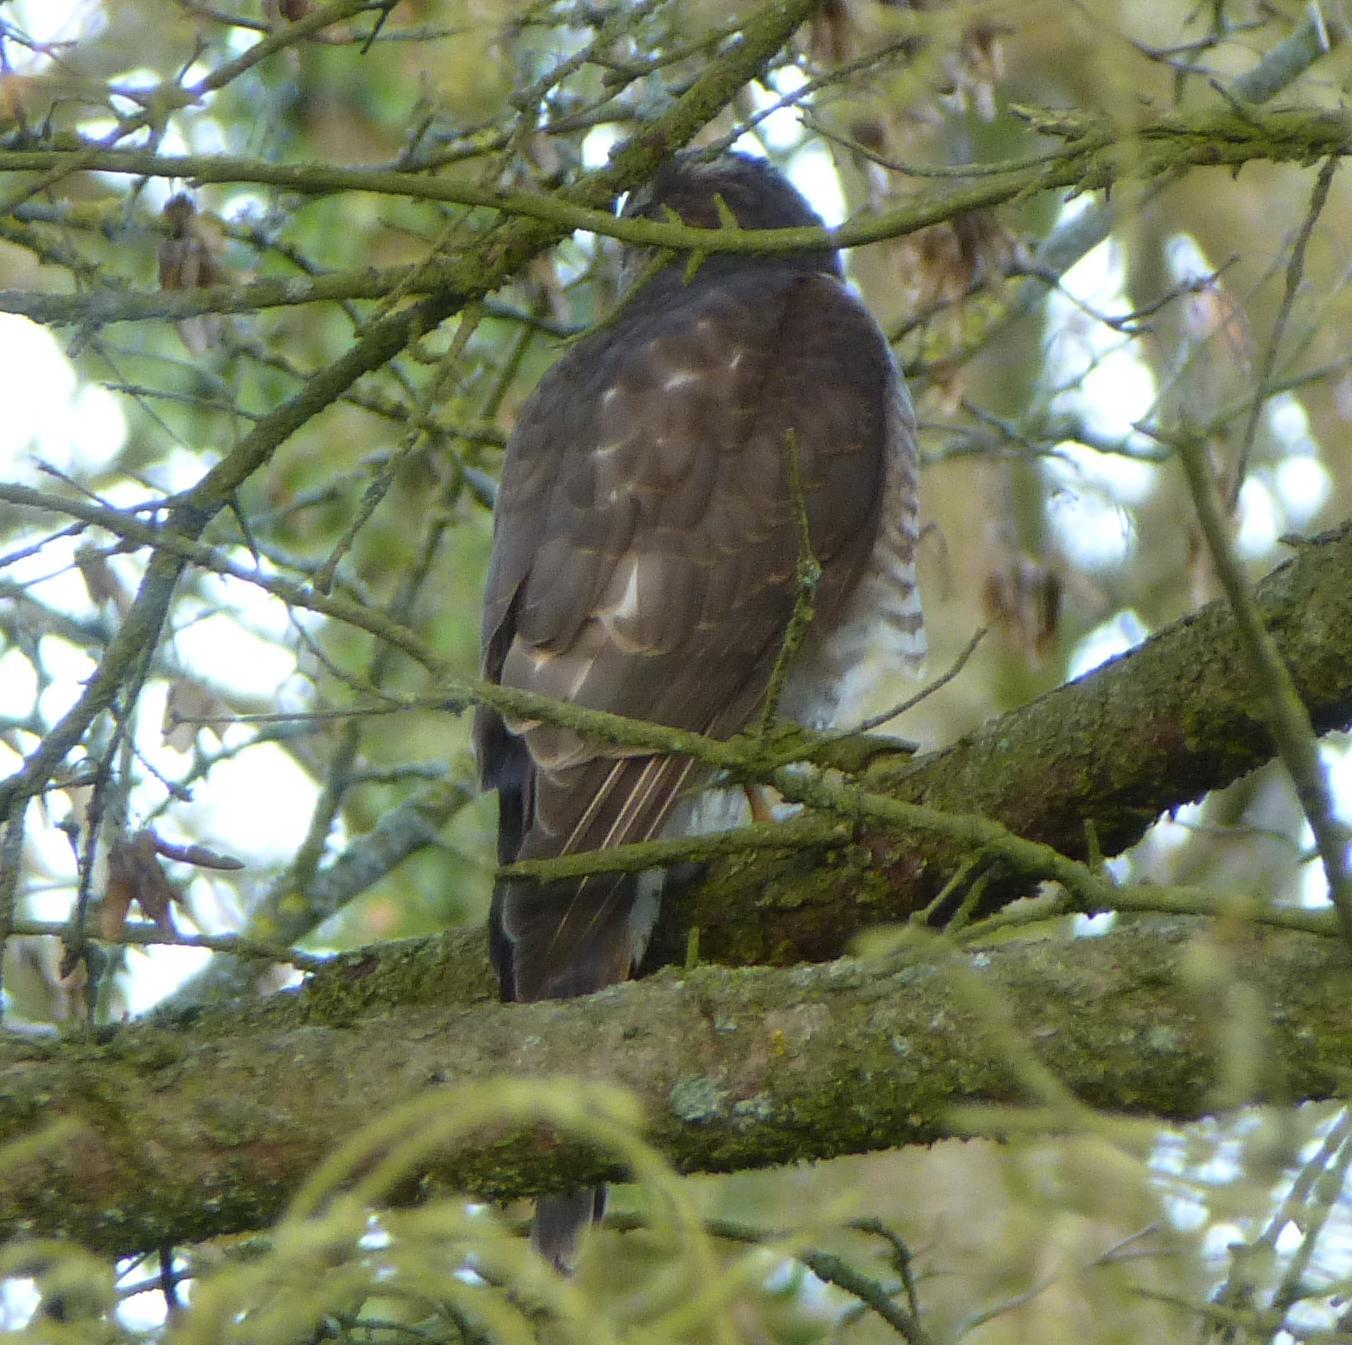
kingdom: Animalia
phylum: Chordata
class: Aves
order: Accipitriformes
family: Accipitridae
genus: Accipiter
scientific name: Accipiter nisus
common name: Eurasian sparrowhawk
